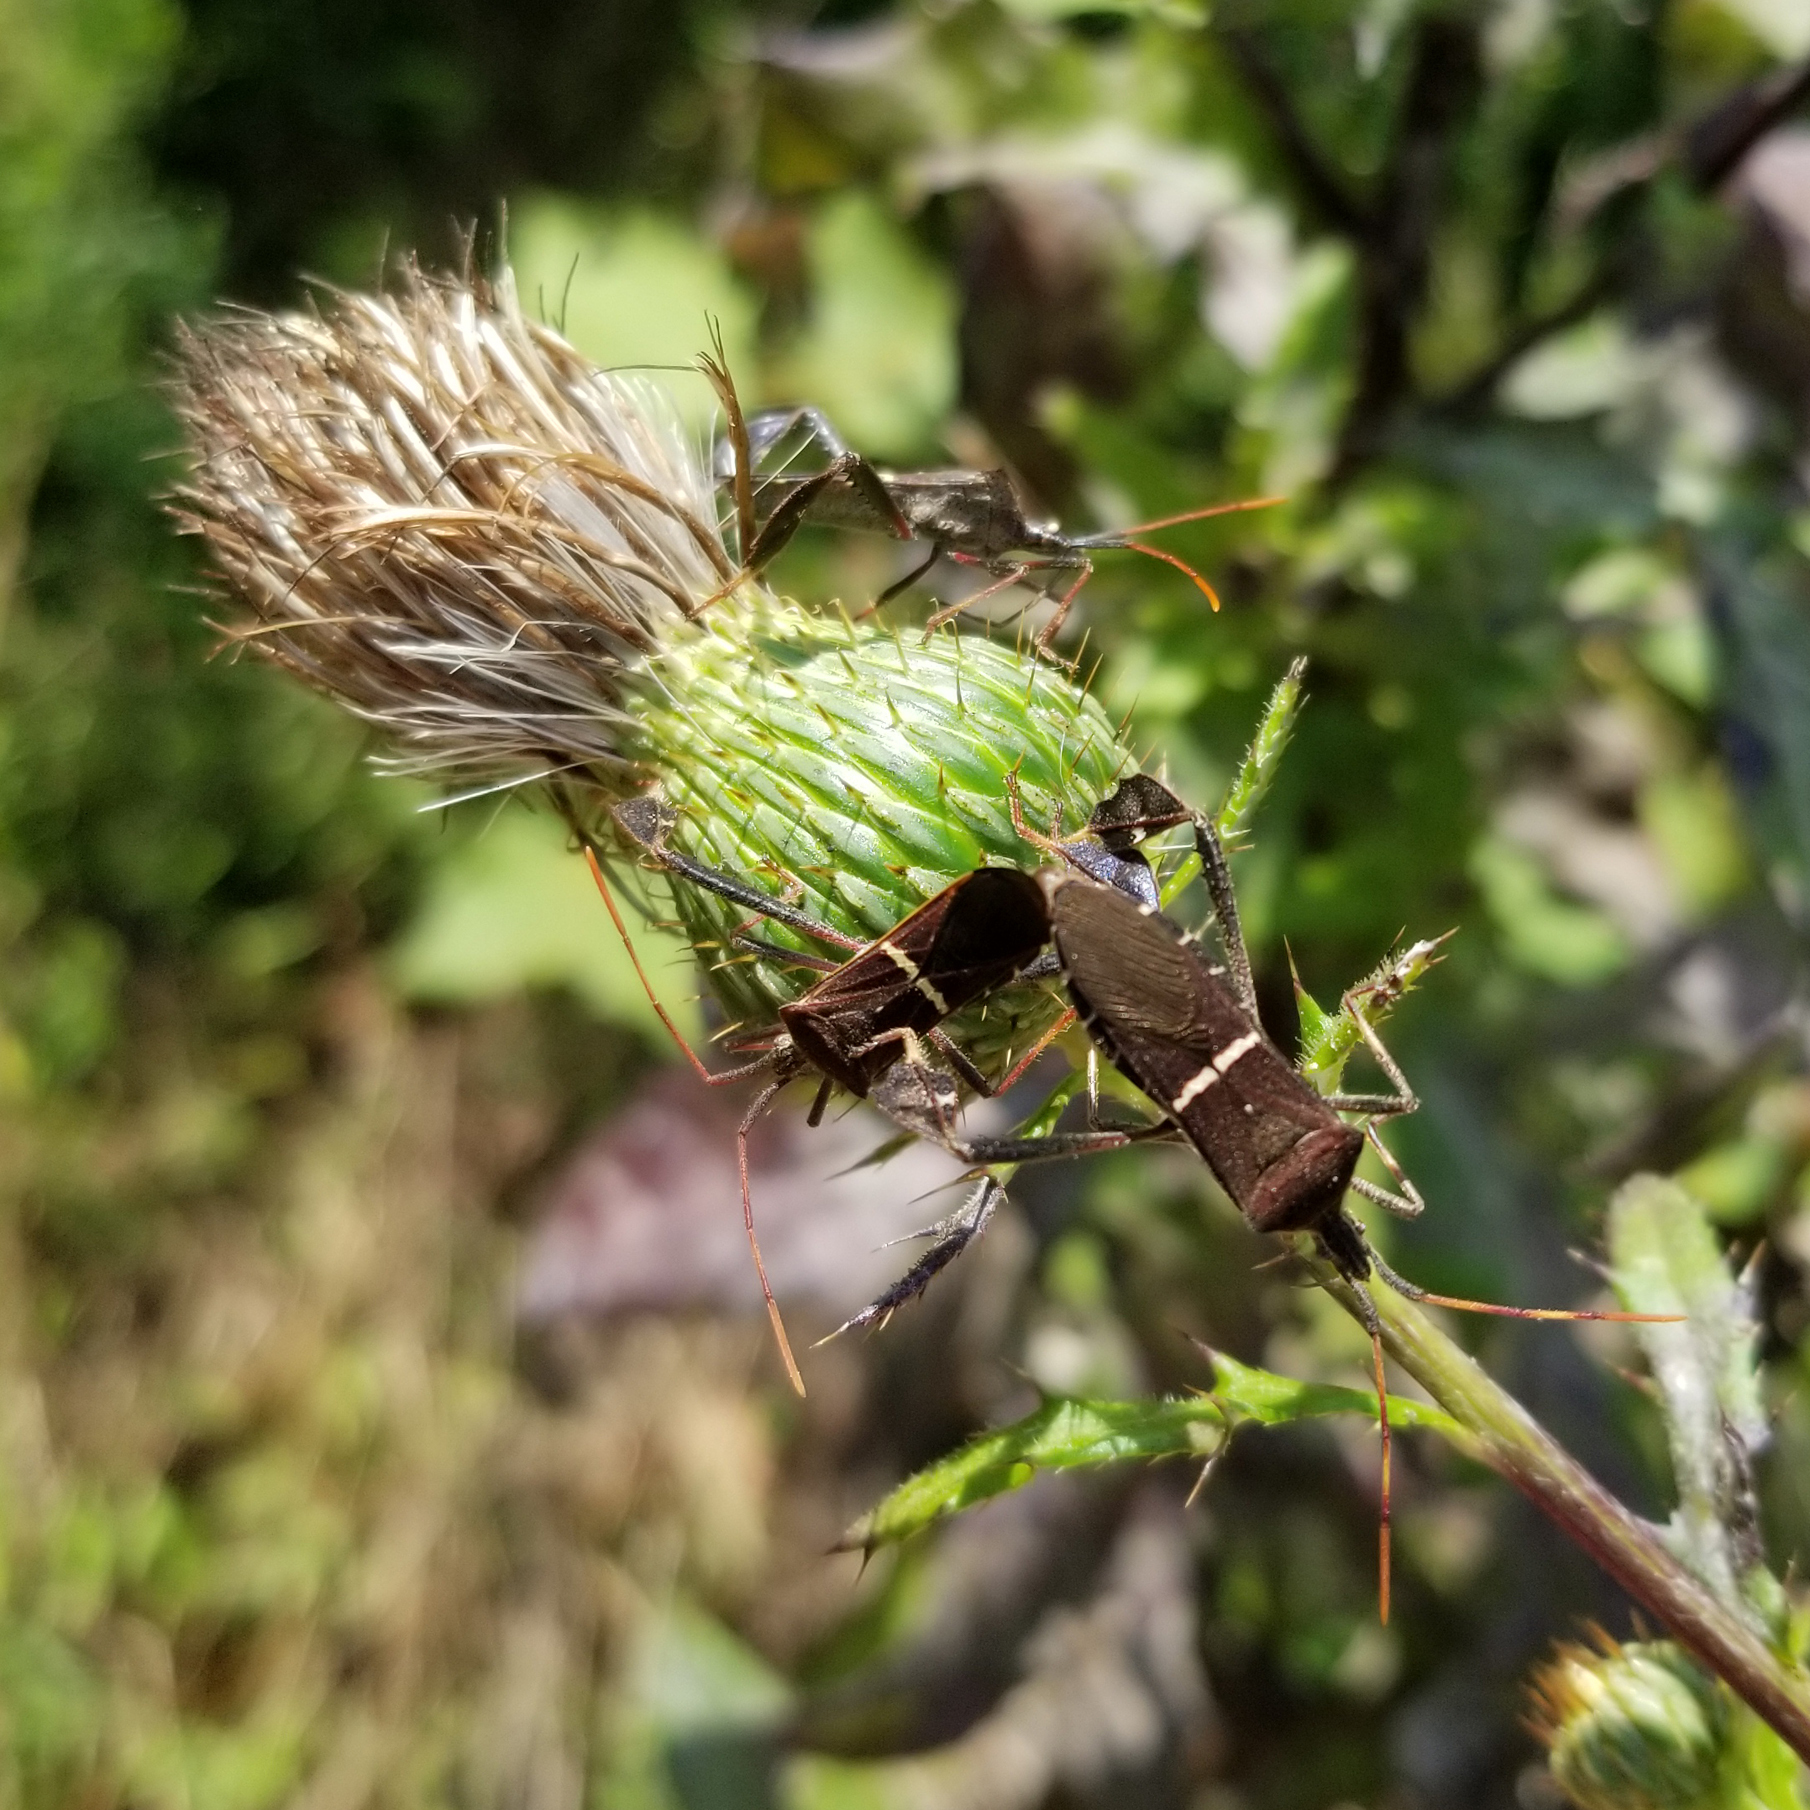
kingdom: Animalia
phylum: Arthropoda
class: Insecta
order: Hemiptera
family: Coreidae
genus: Leptoglossus
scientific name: Leptoglossus phyllopus
